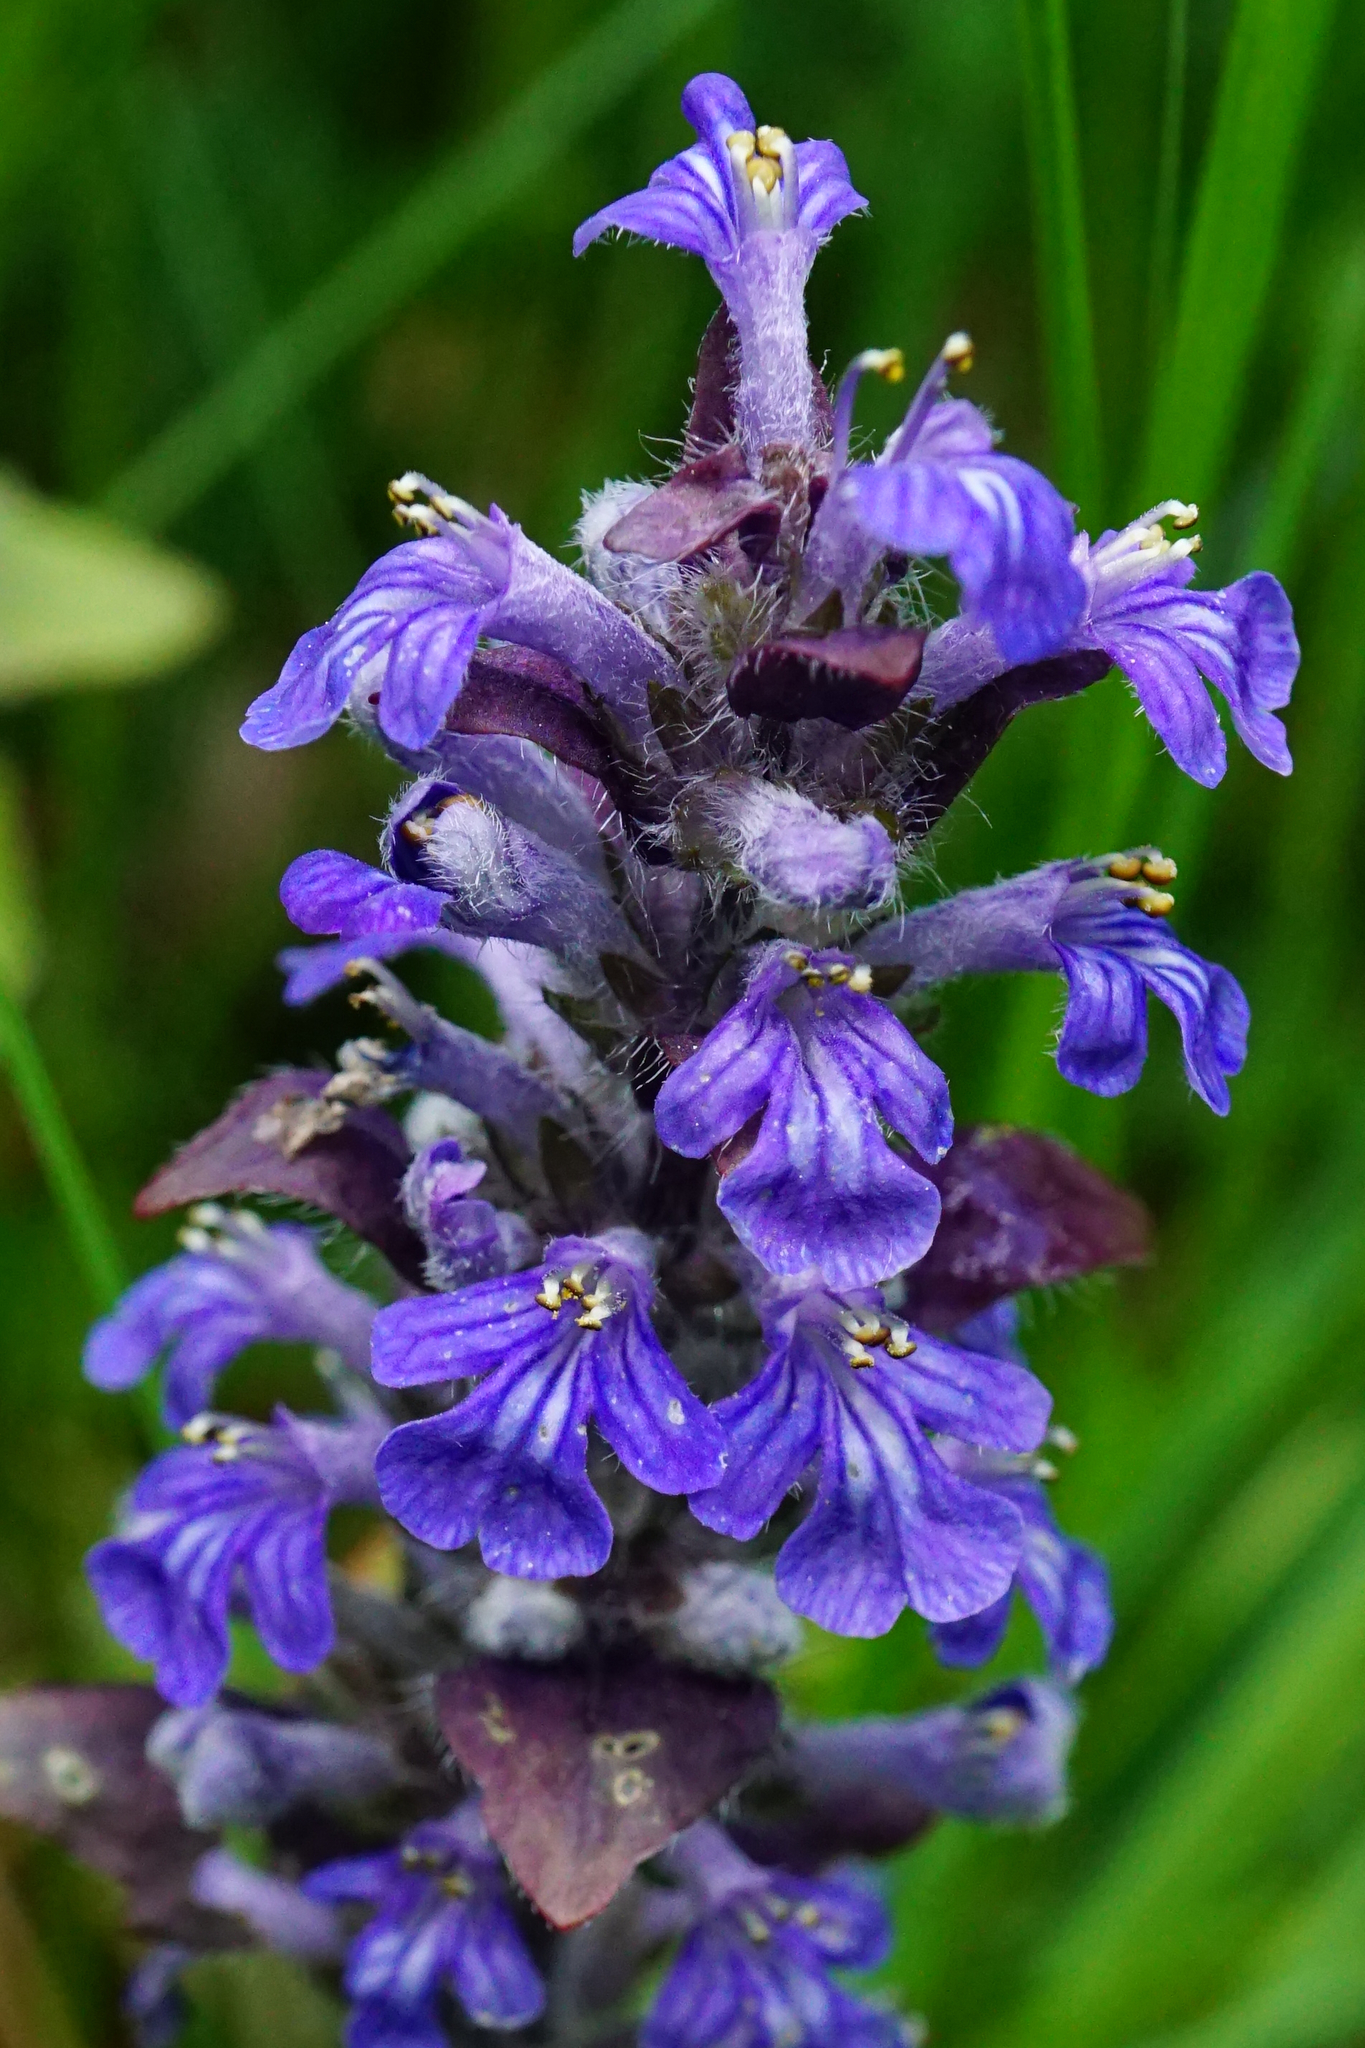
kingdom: Plantae
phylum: Tracheophyta
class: Magnoliopsida
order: Lamiales
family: Lamiaceae
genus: Ajuga
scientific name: Ajuga reptans
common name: Bugle
